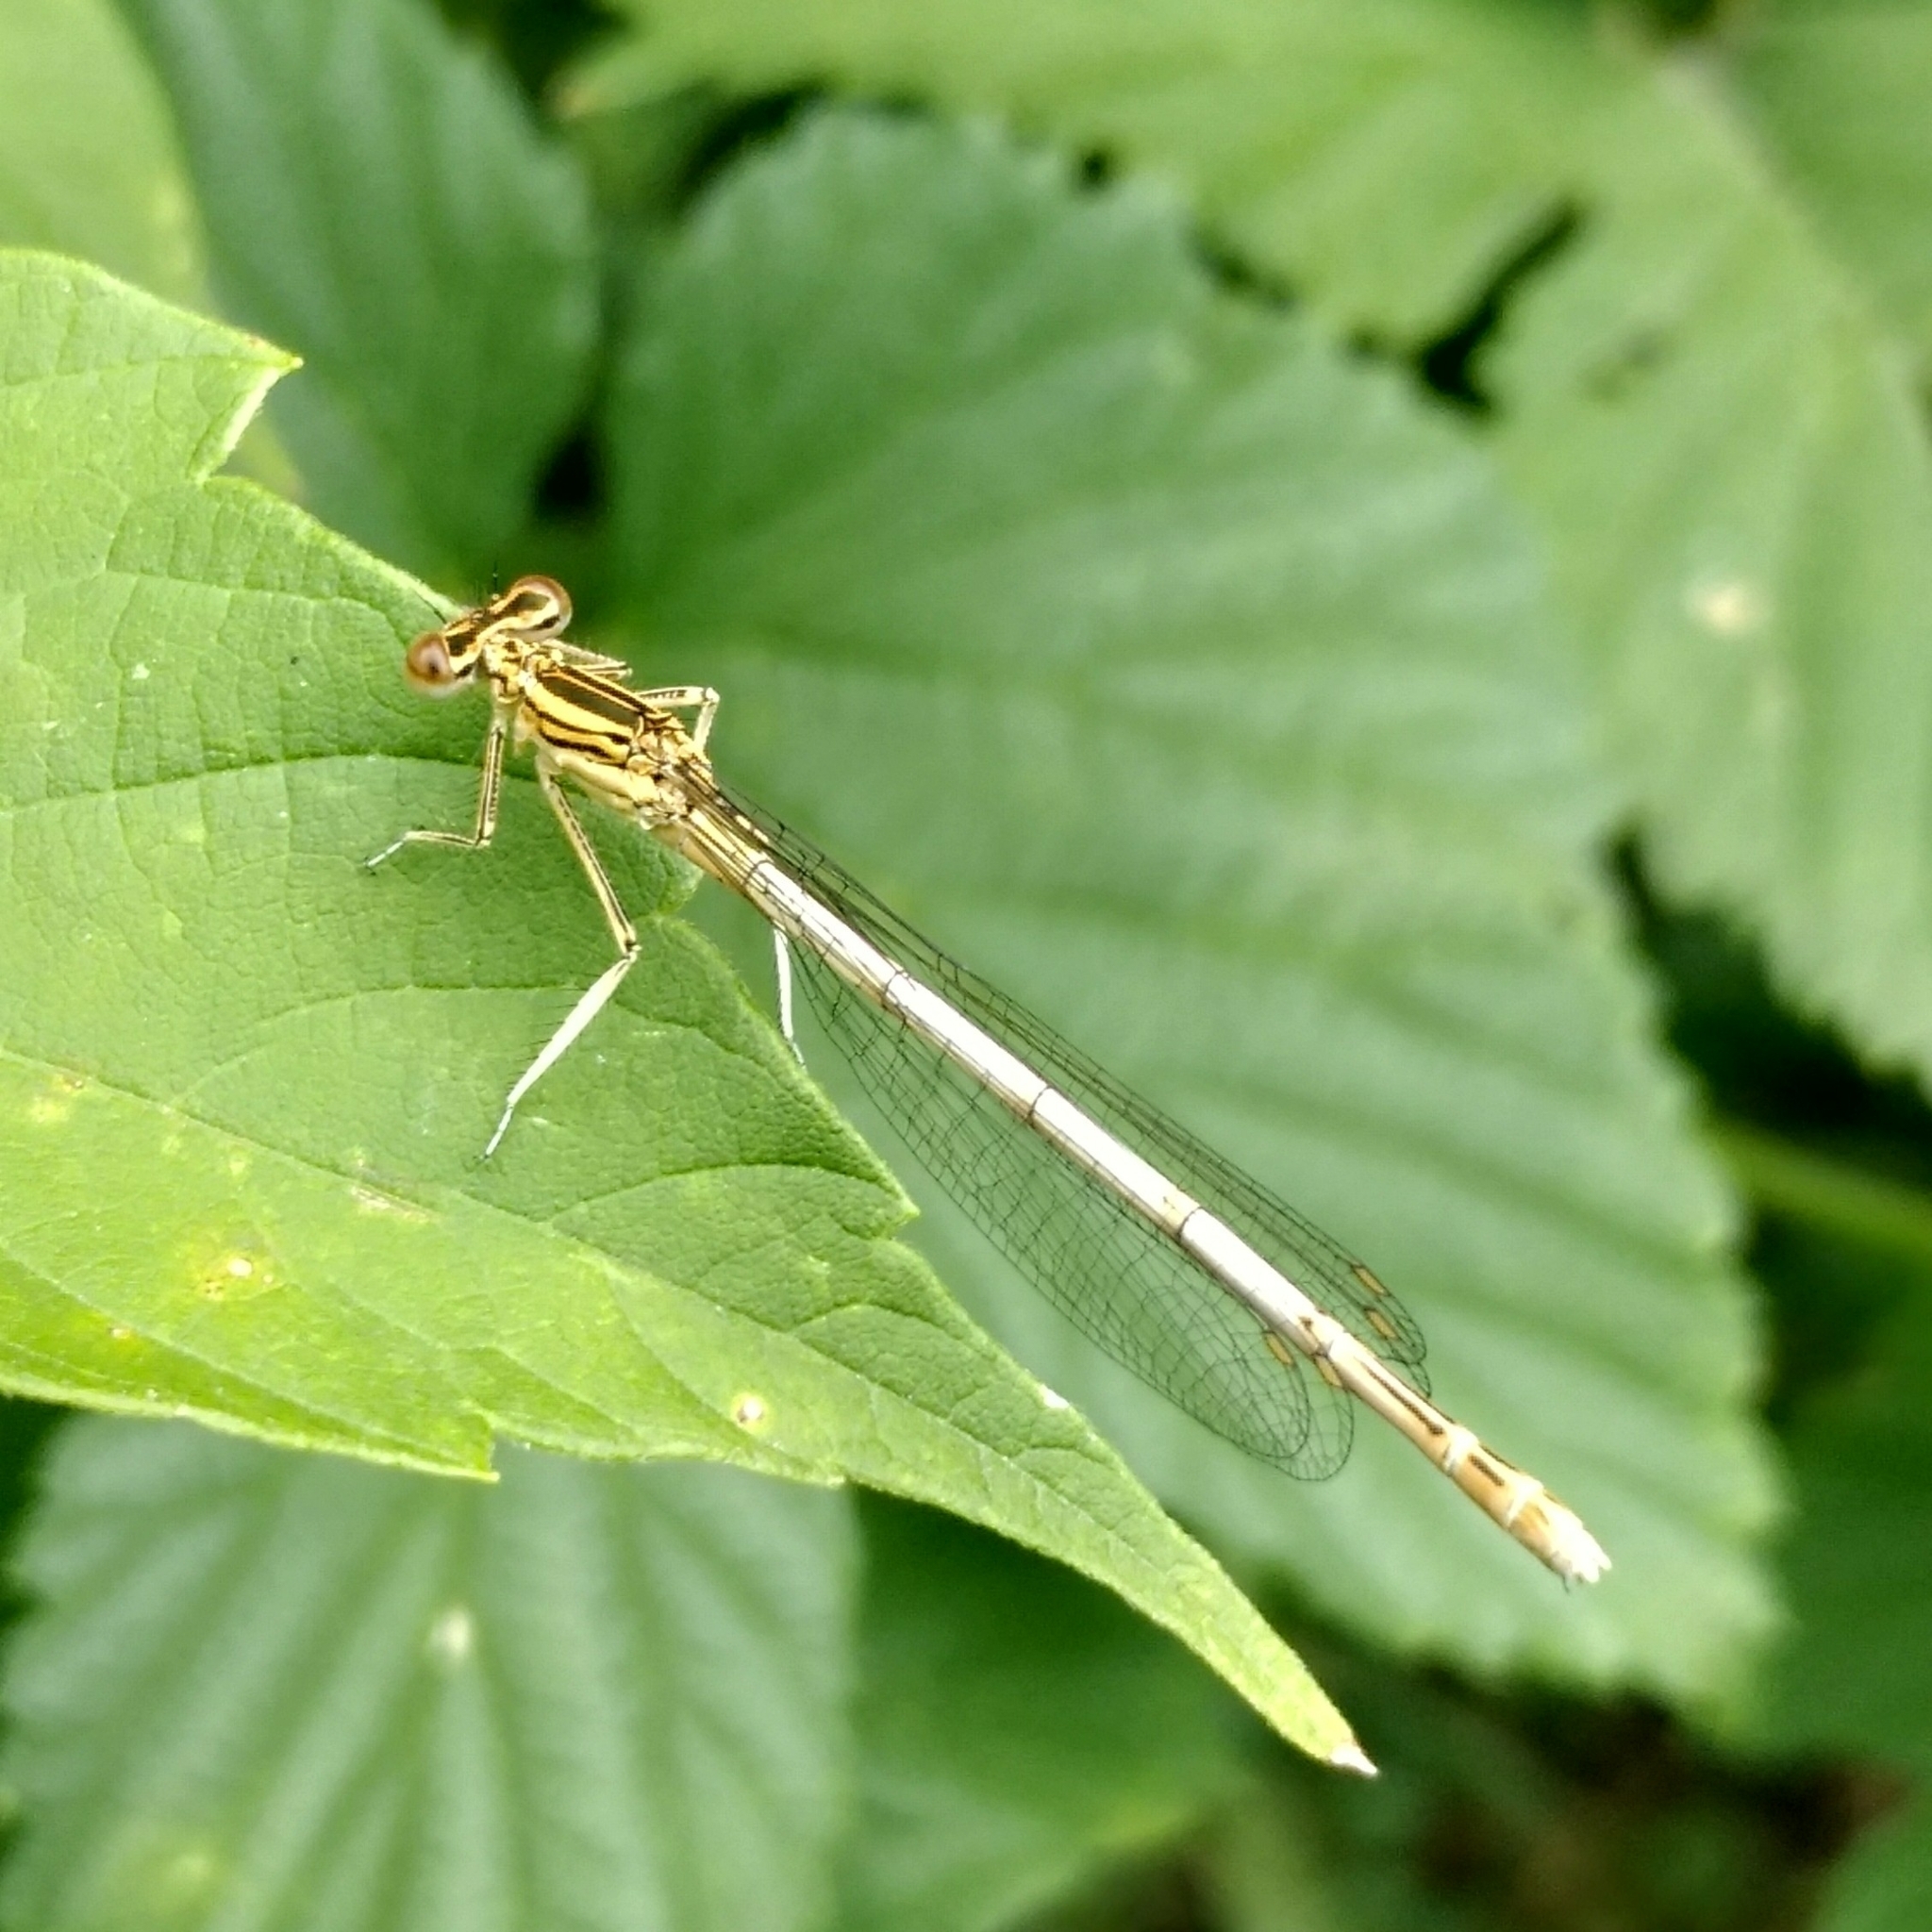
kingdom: Animalia
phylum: Arthropoda
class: Insecta
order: Odonata
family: Platycnemididae
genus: Platycnemis
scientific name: Platycnemis pennipes
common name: White-legged damselfly
